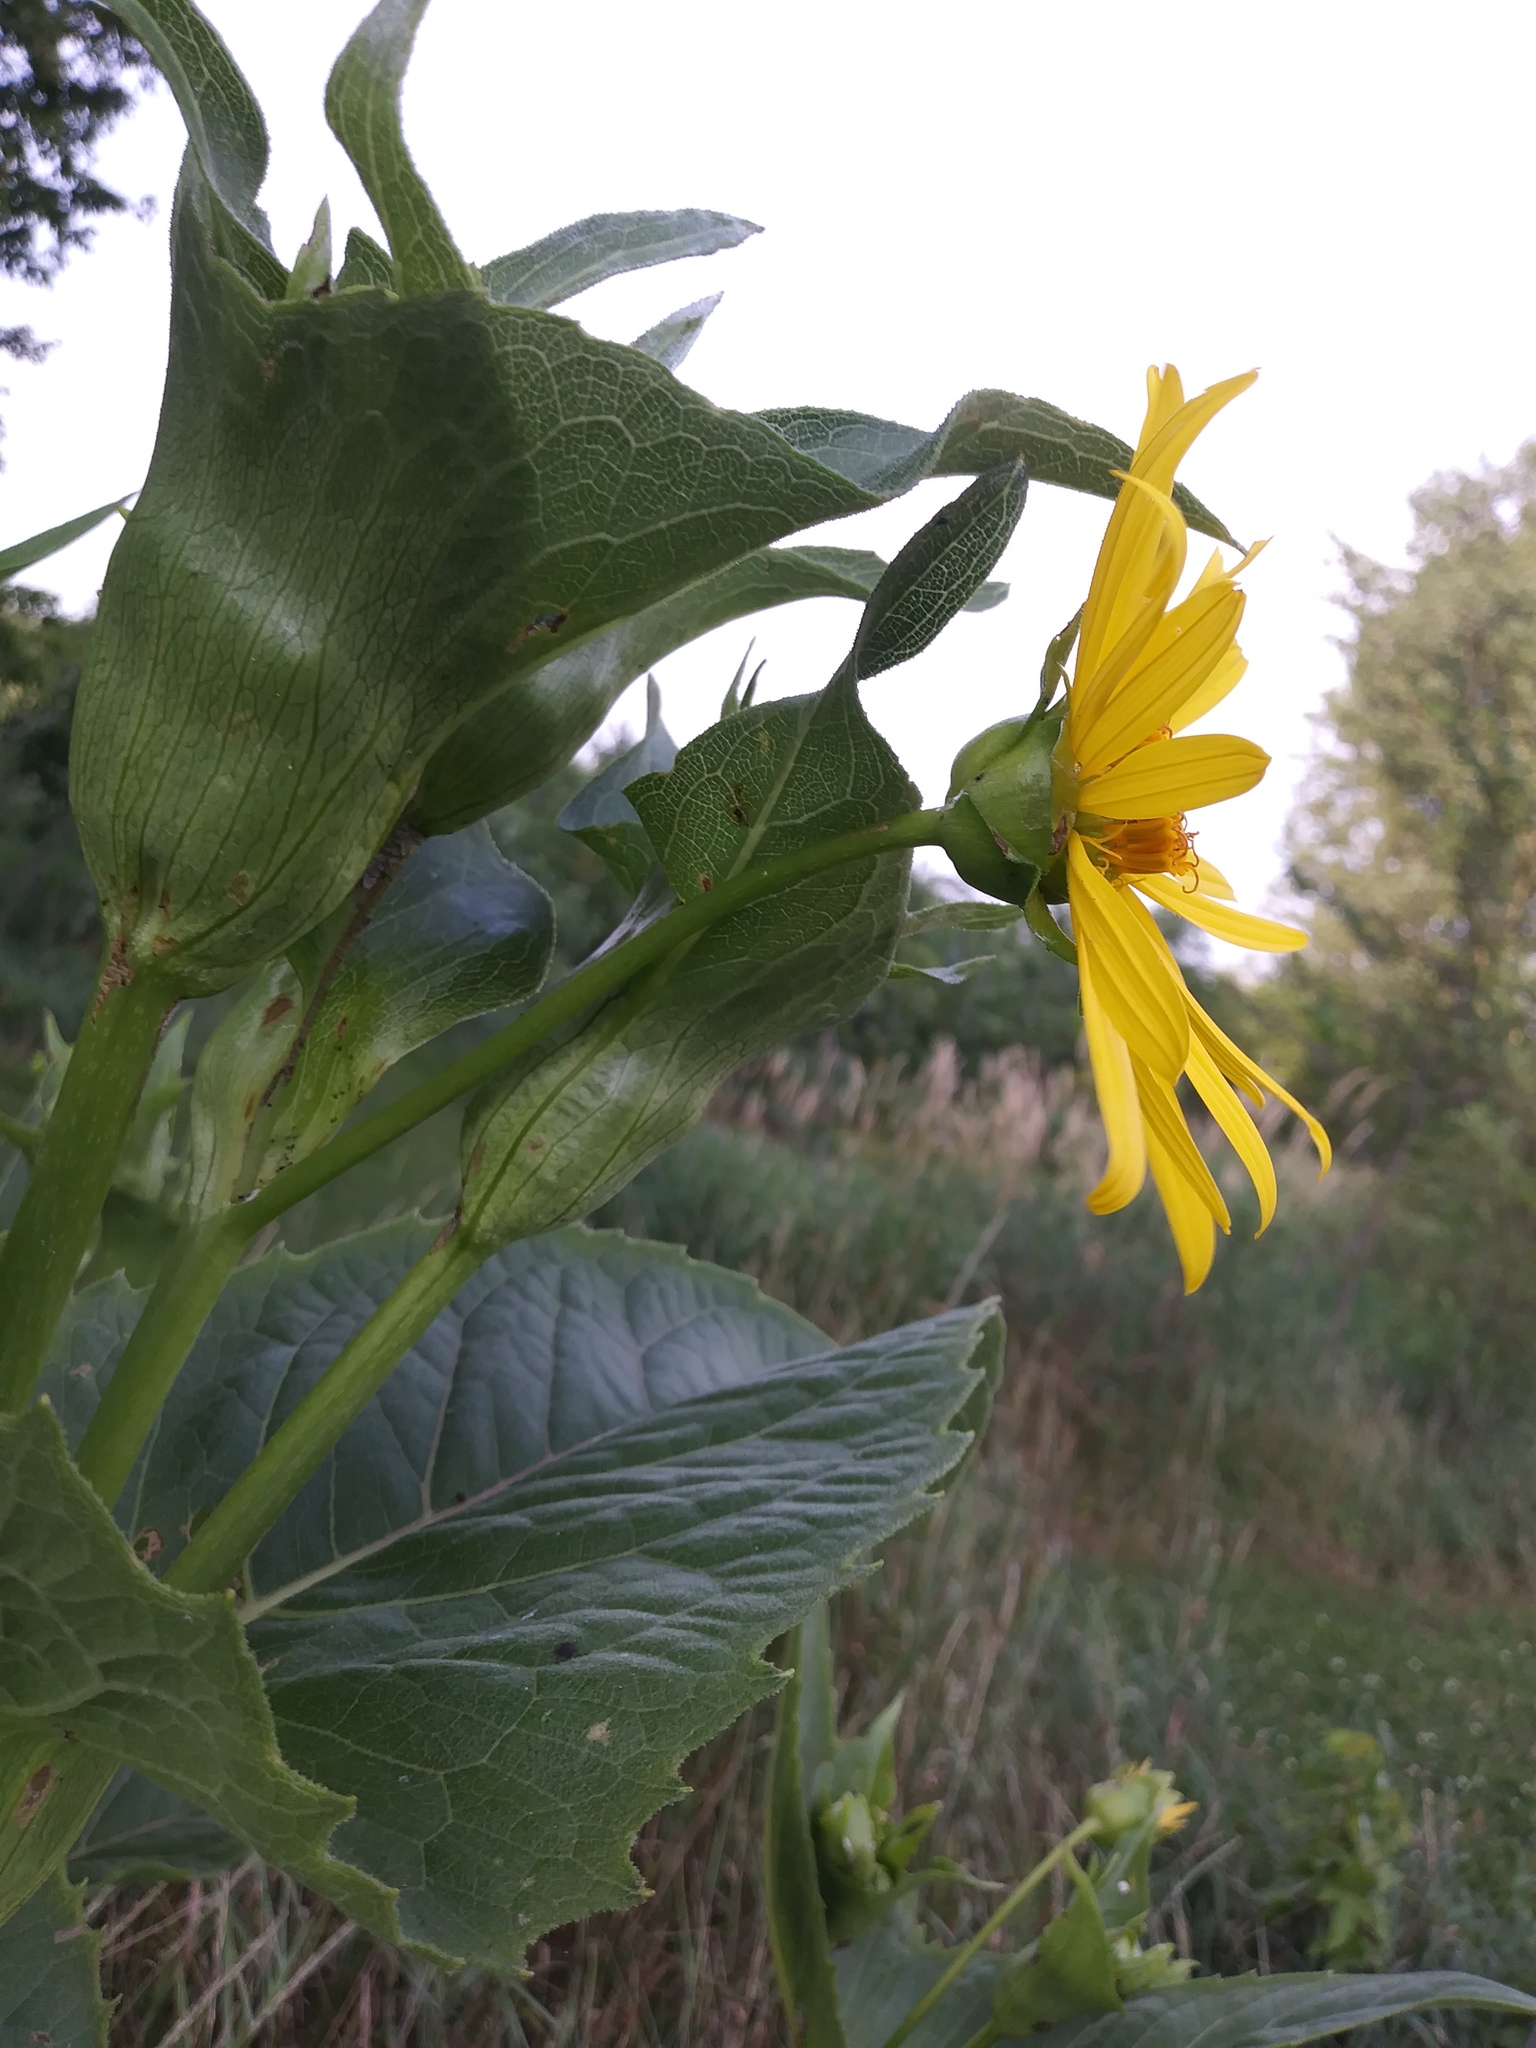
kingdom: Plantae
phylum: Tracheophyta
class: Magnoliopsida
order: Asterales
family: Asteraceae
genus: Silphium
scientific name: Silphium perfoliatum
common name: Cup-plant
